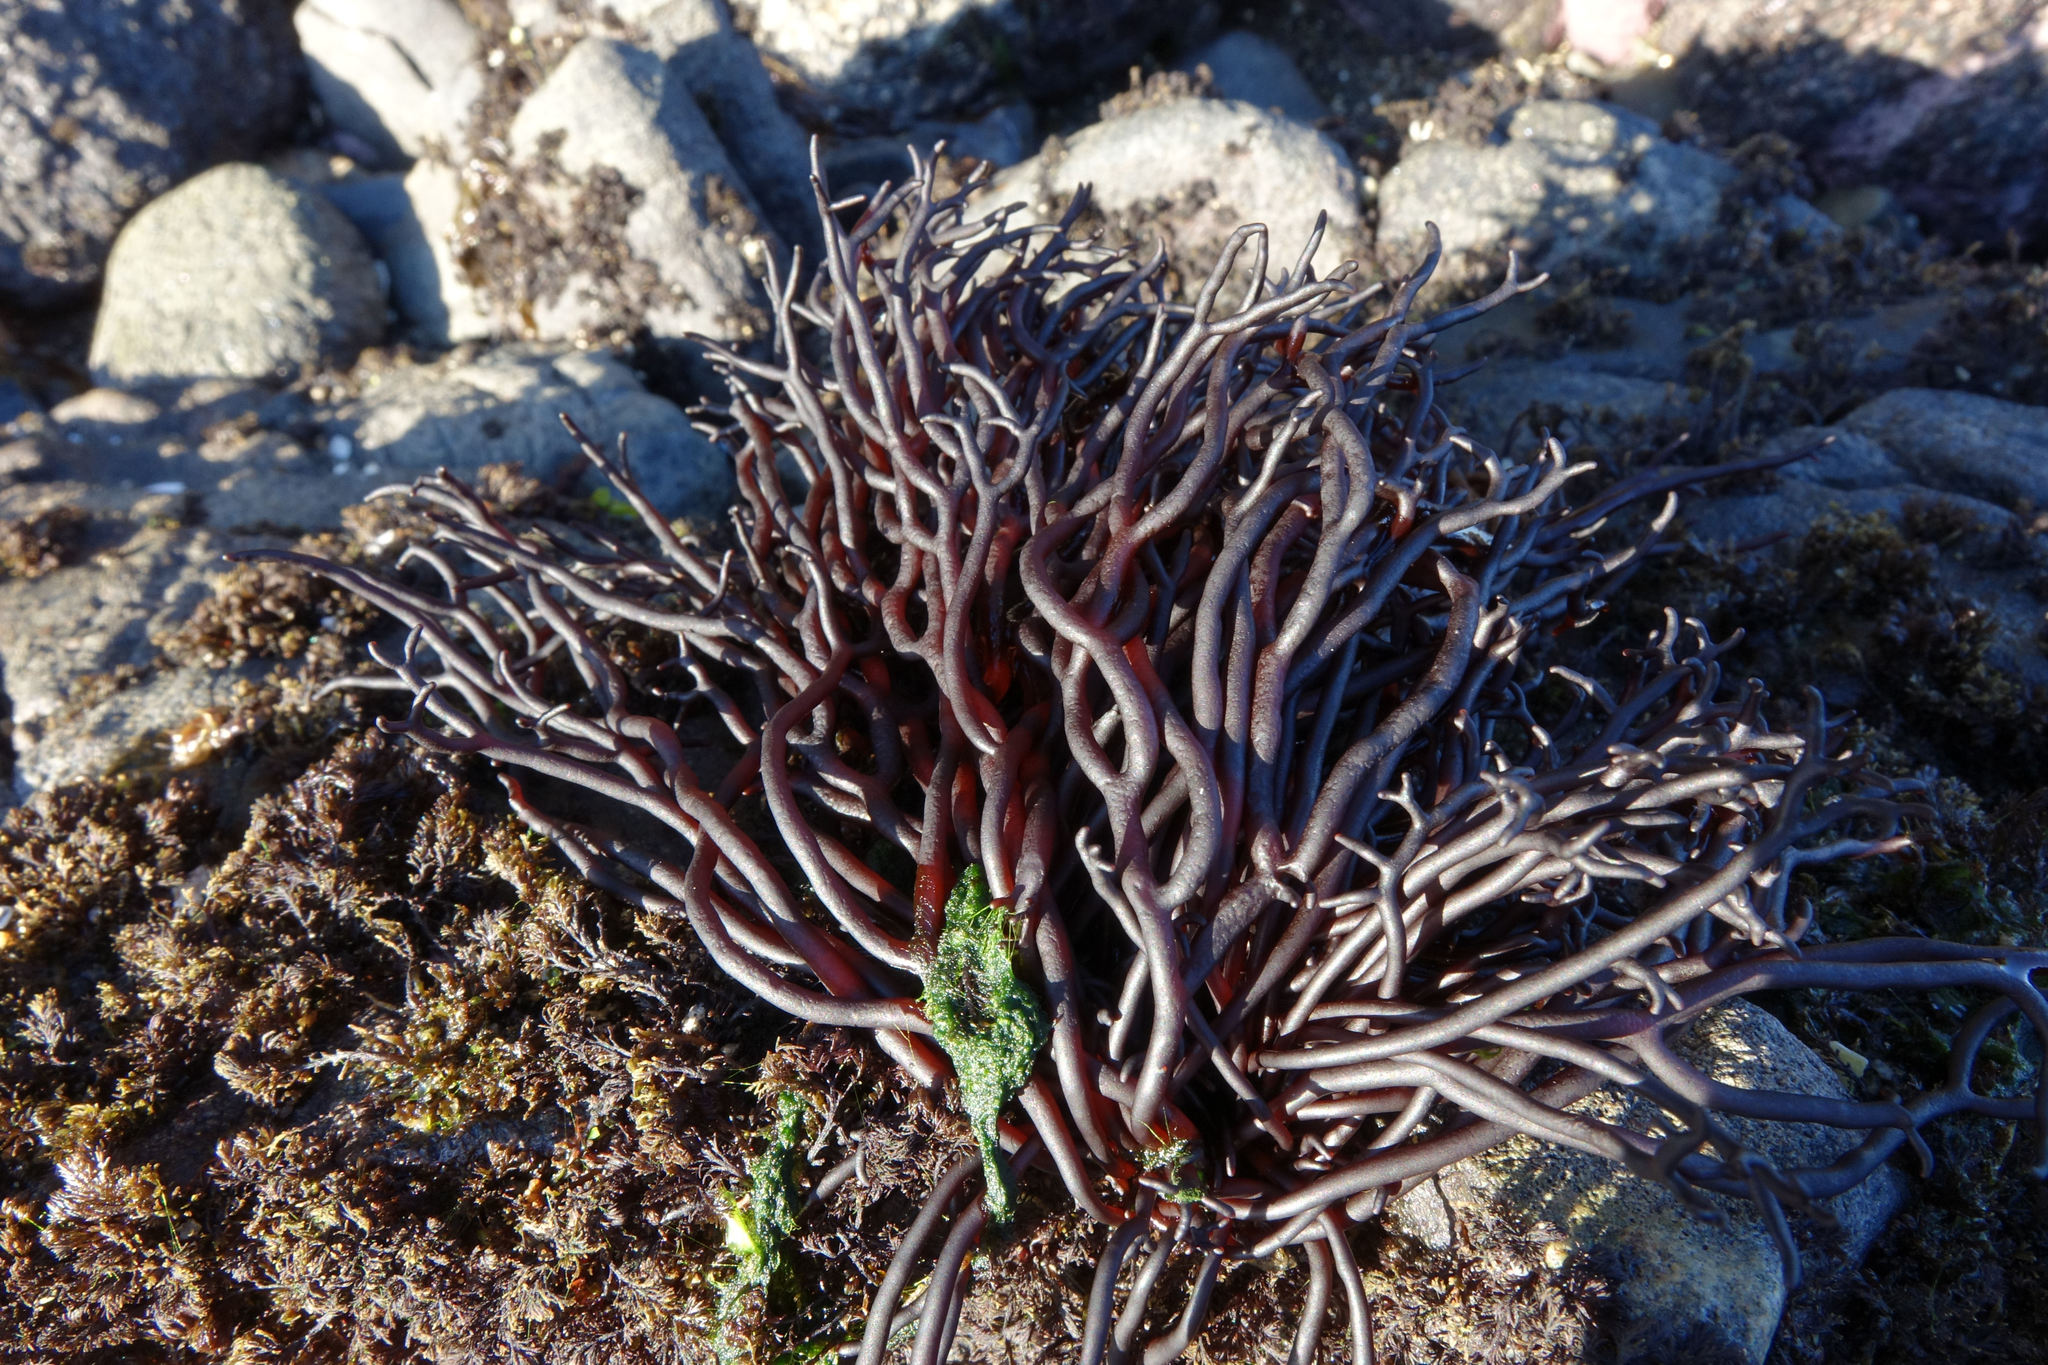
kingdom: Plantae
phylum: Rhodophyta
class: Florideophyceae
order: Hildenbrandiales
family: Hildenbrandiaceae
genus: Apophlaea
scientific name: Apophlaea lyallii
